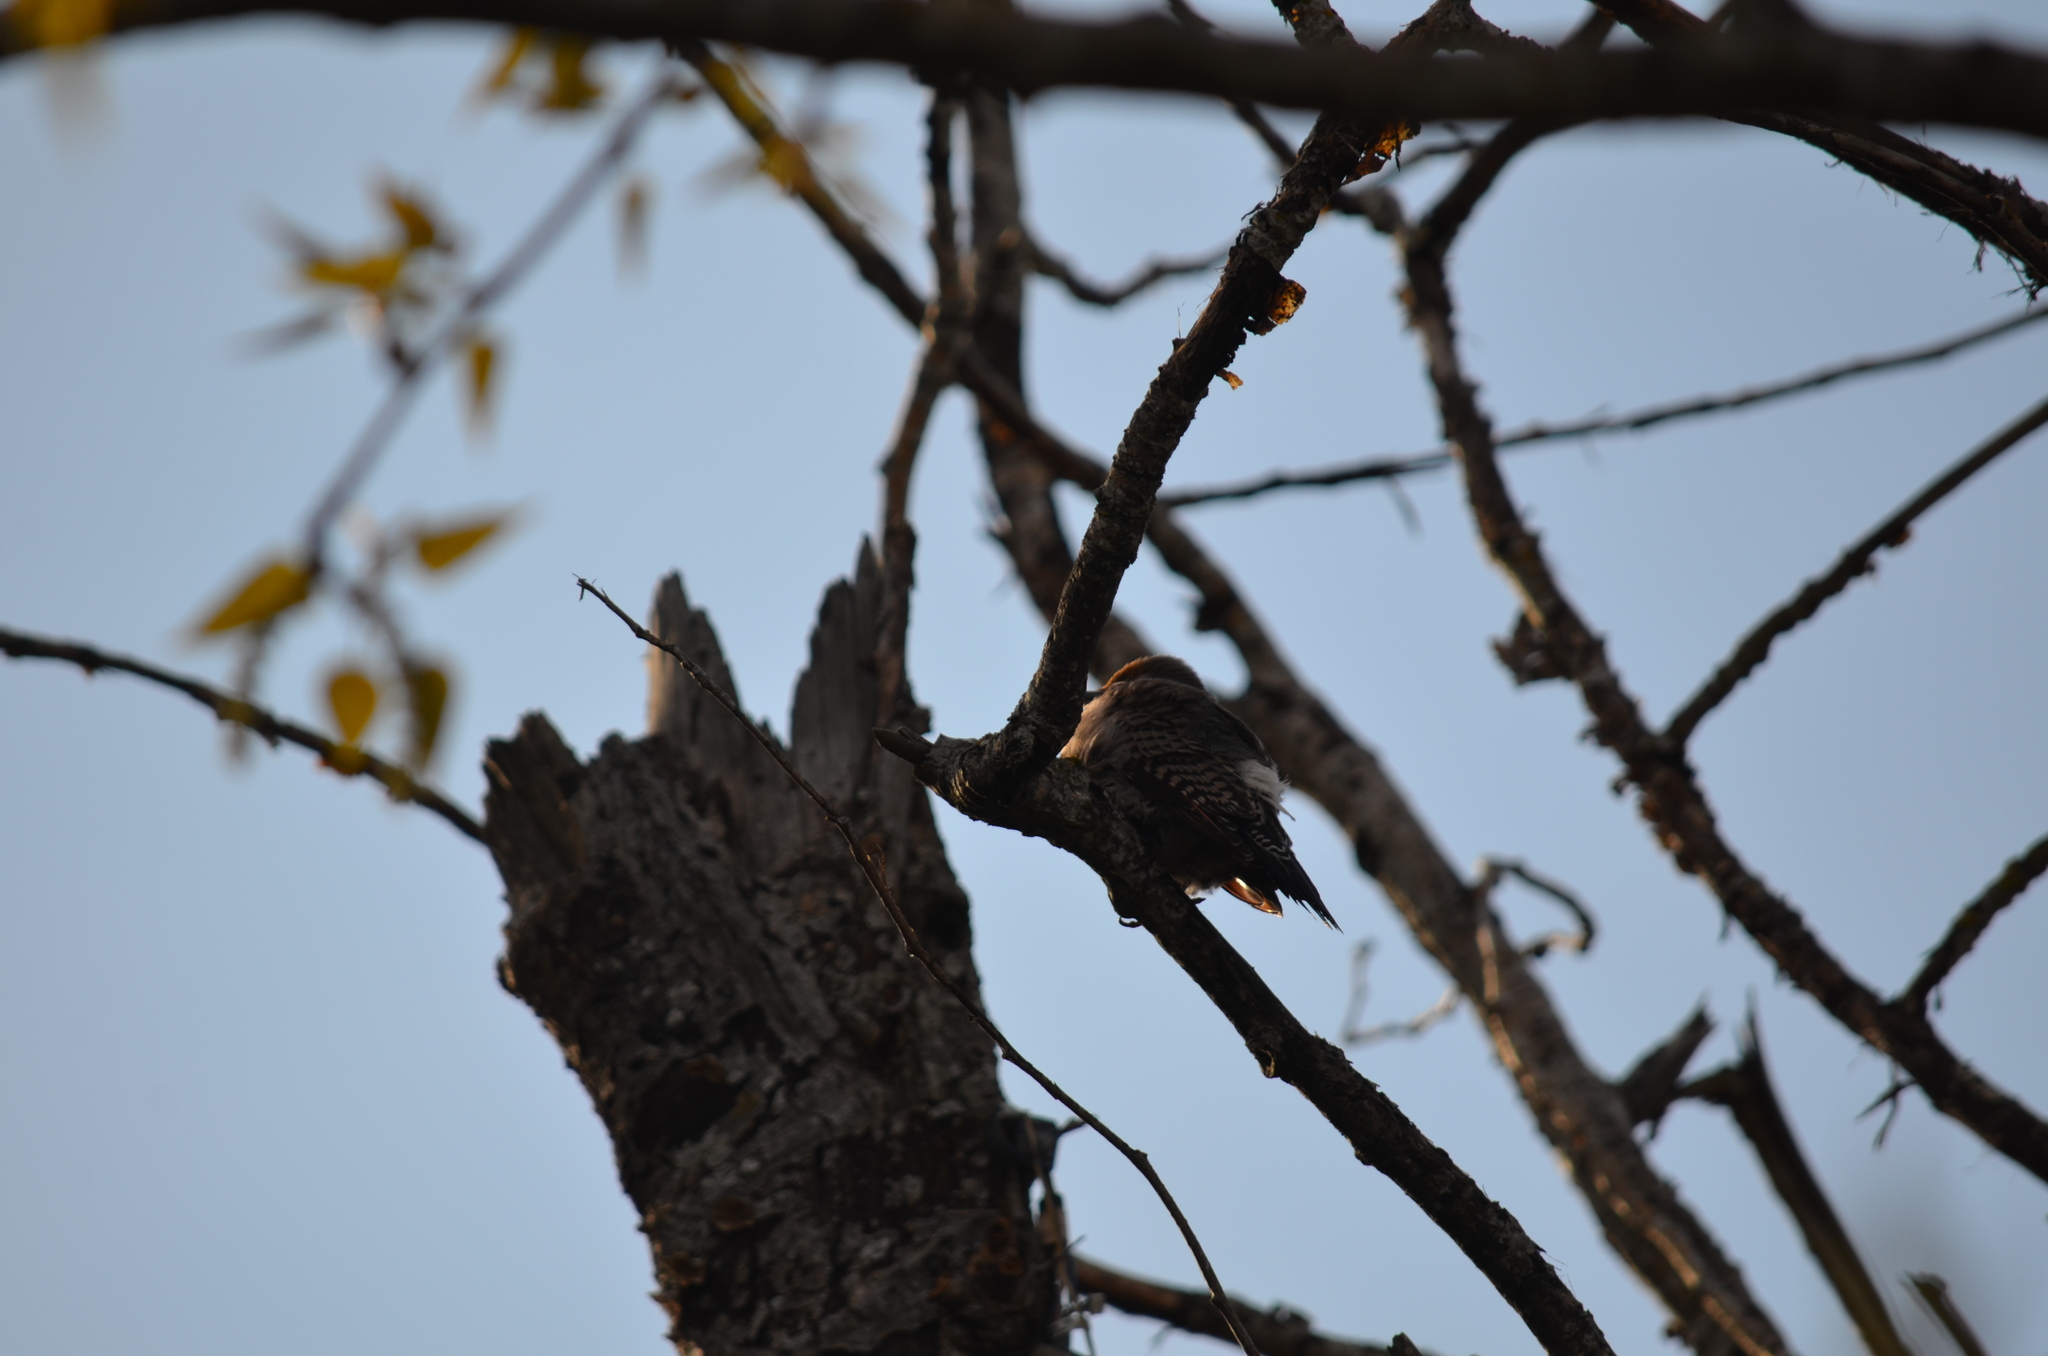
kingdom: Animalia
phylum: Chordata
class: Aves
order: Piciformes
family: Picidae
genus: Colaptes
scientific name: Colaptes auratus
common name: Northern flicker
